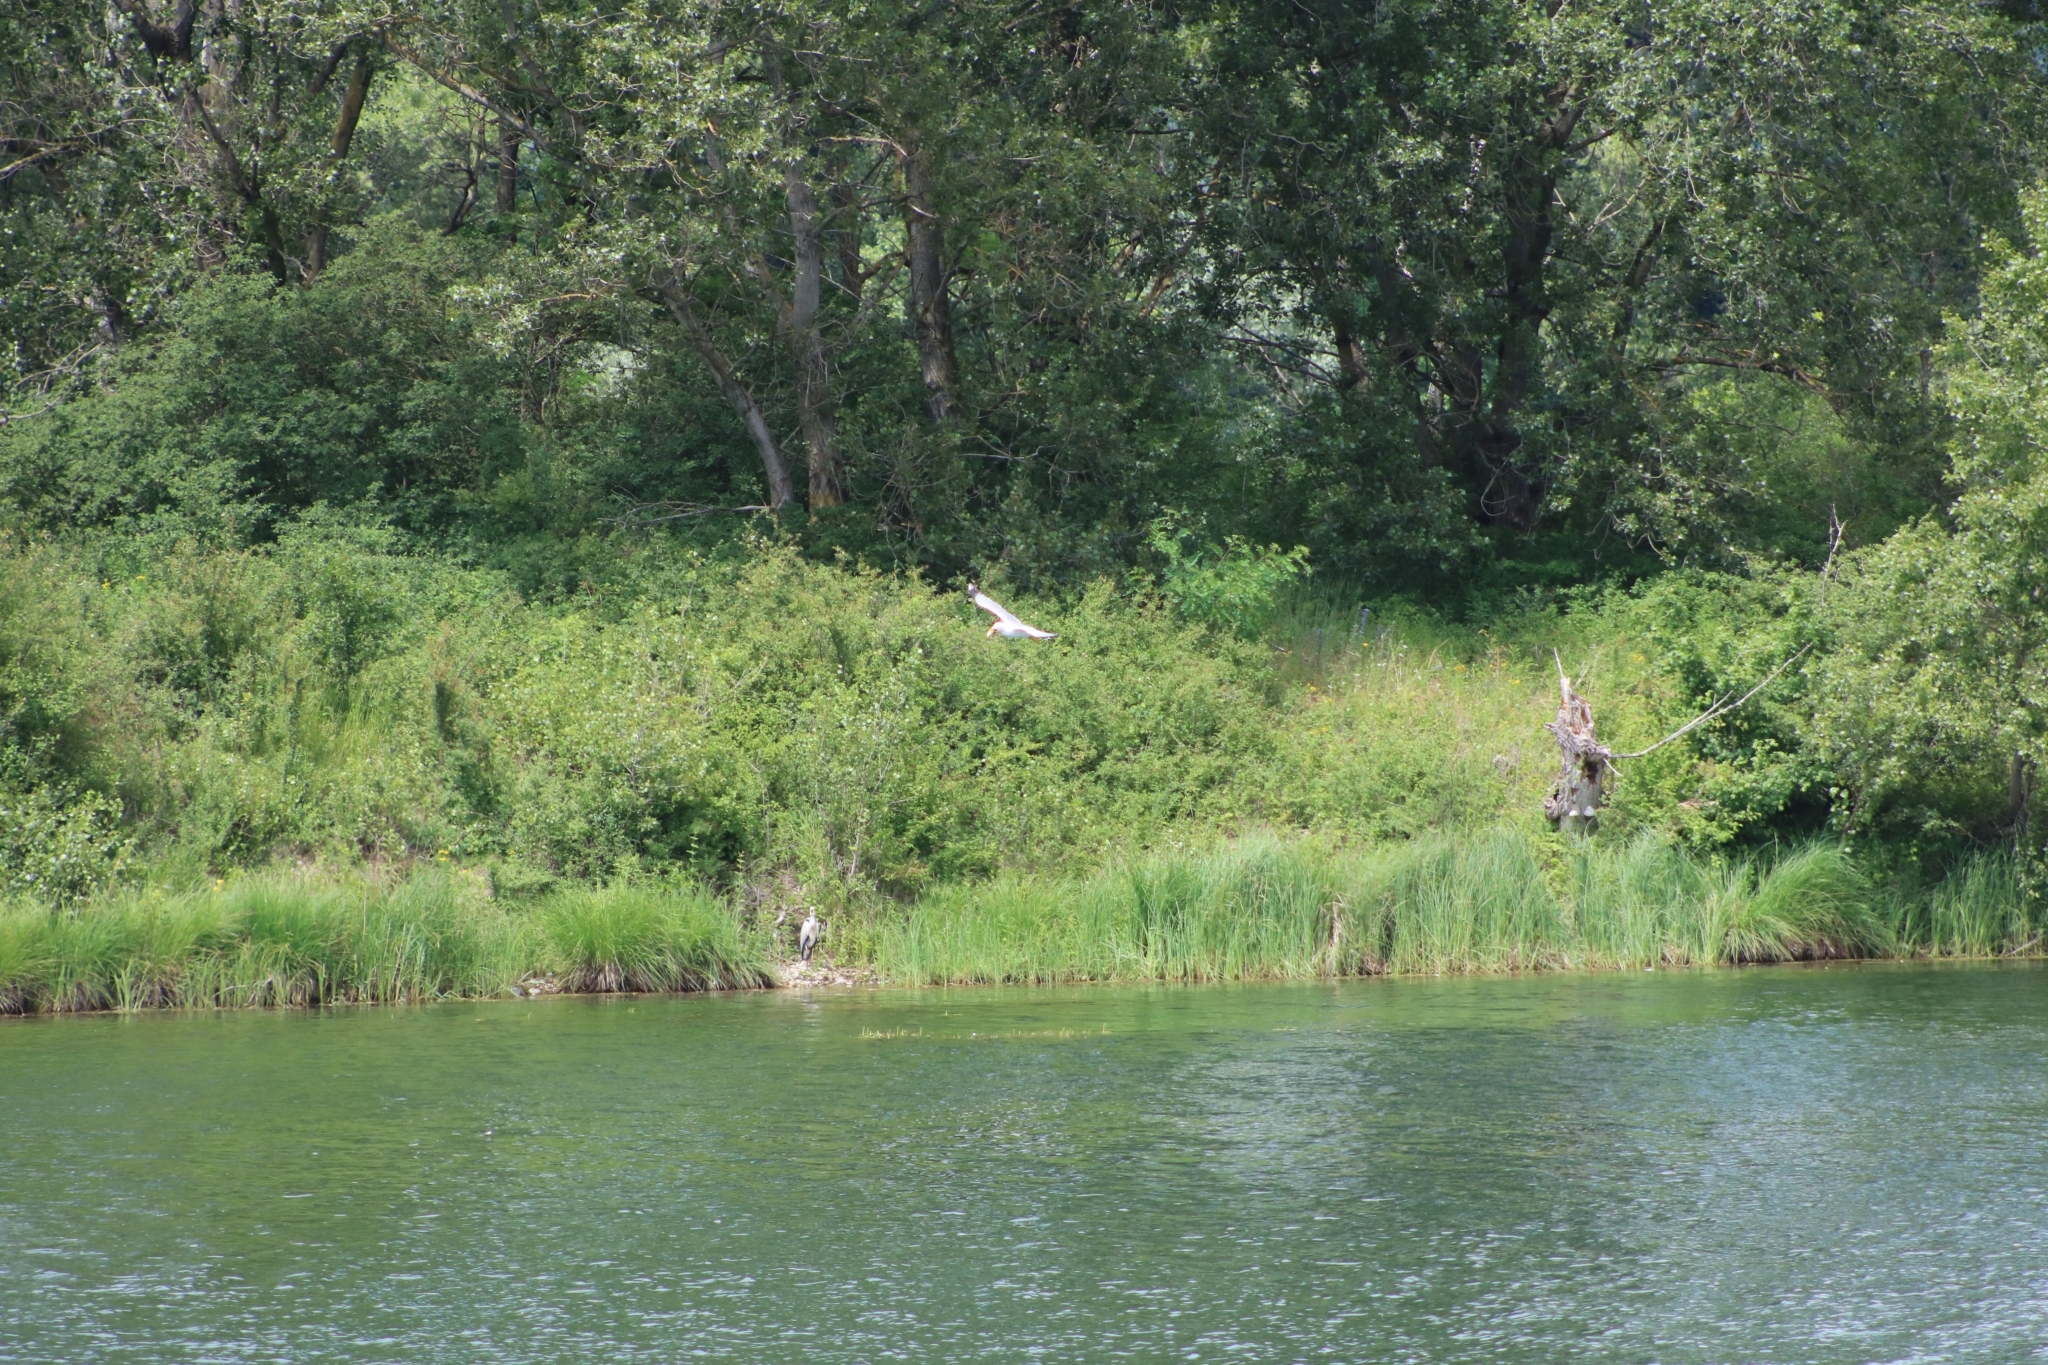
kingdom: Animalia
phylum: Chordata
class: Aves
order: Charadriiformes
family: Laridae
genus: Larus
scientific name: Larus michahellis
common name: Yellow-legged gull
